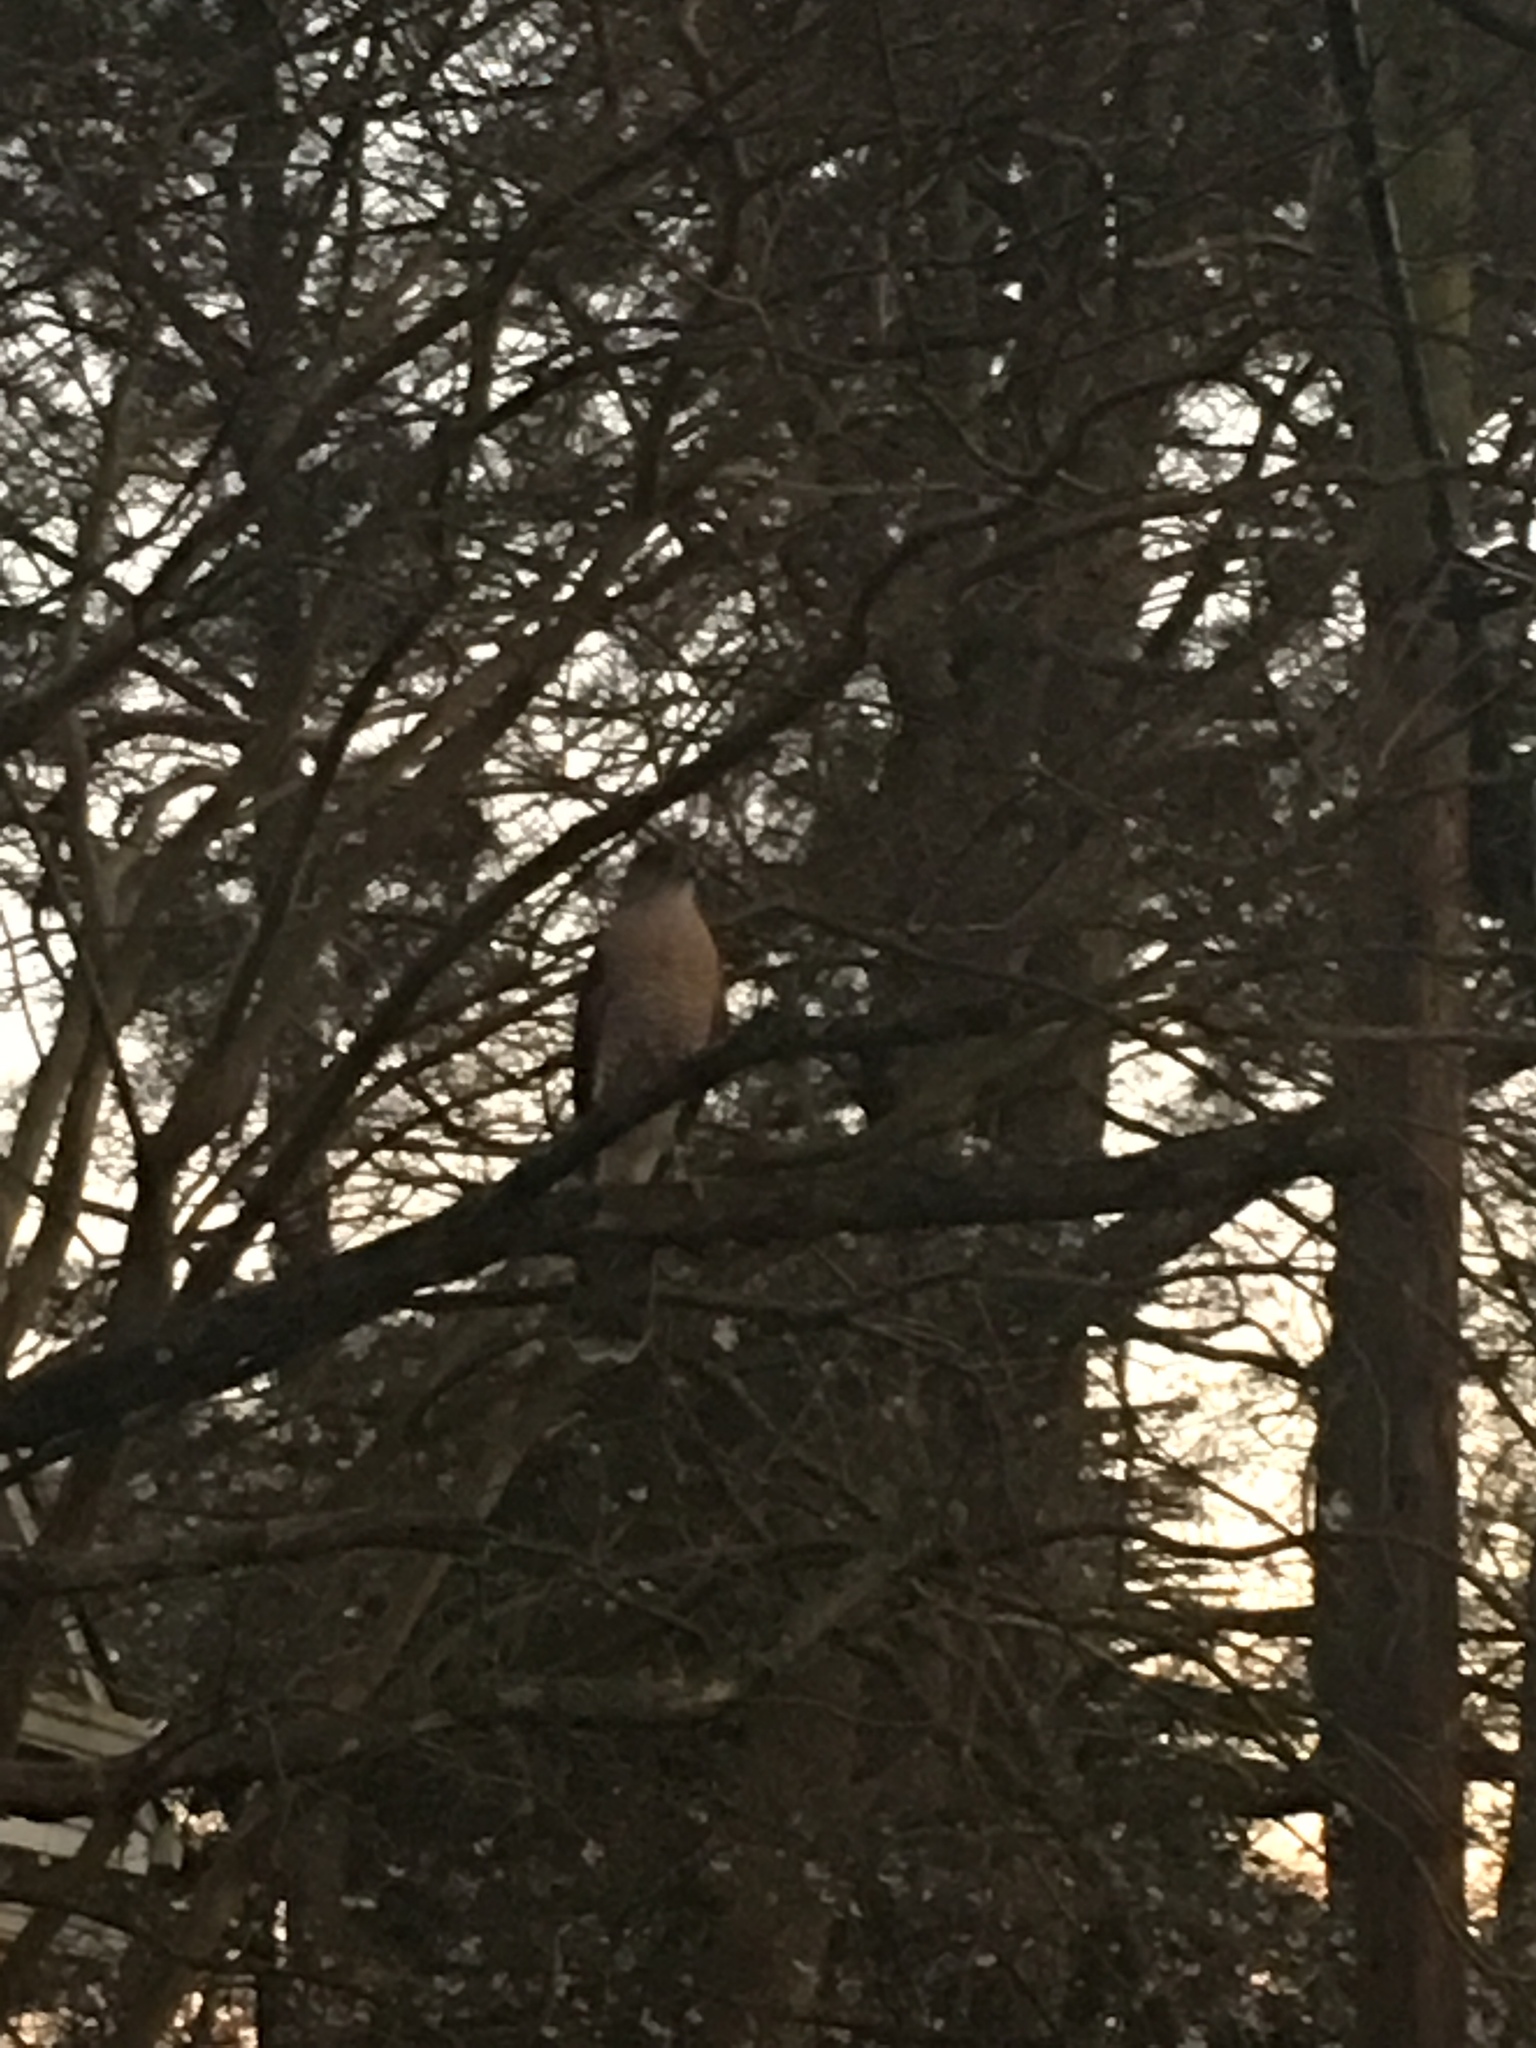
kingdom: Animalia
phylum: Chordata
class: Aves
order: Accipitriformes
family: Accipitridae
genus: Accipiter
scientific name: Accipiter cooperii
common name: Cooper's hawk
